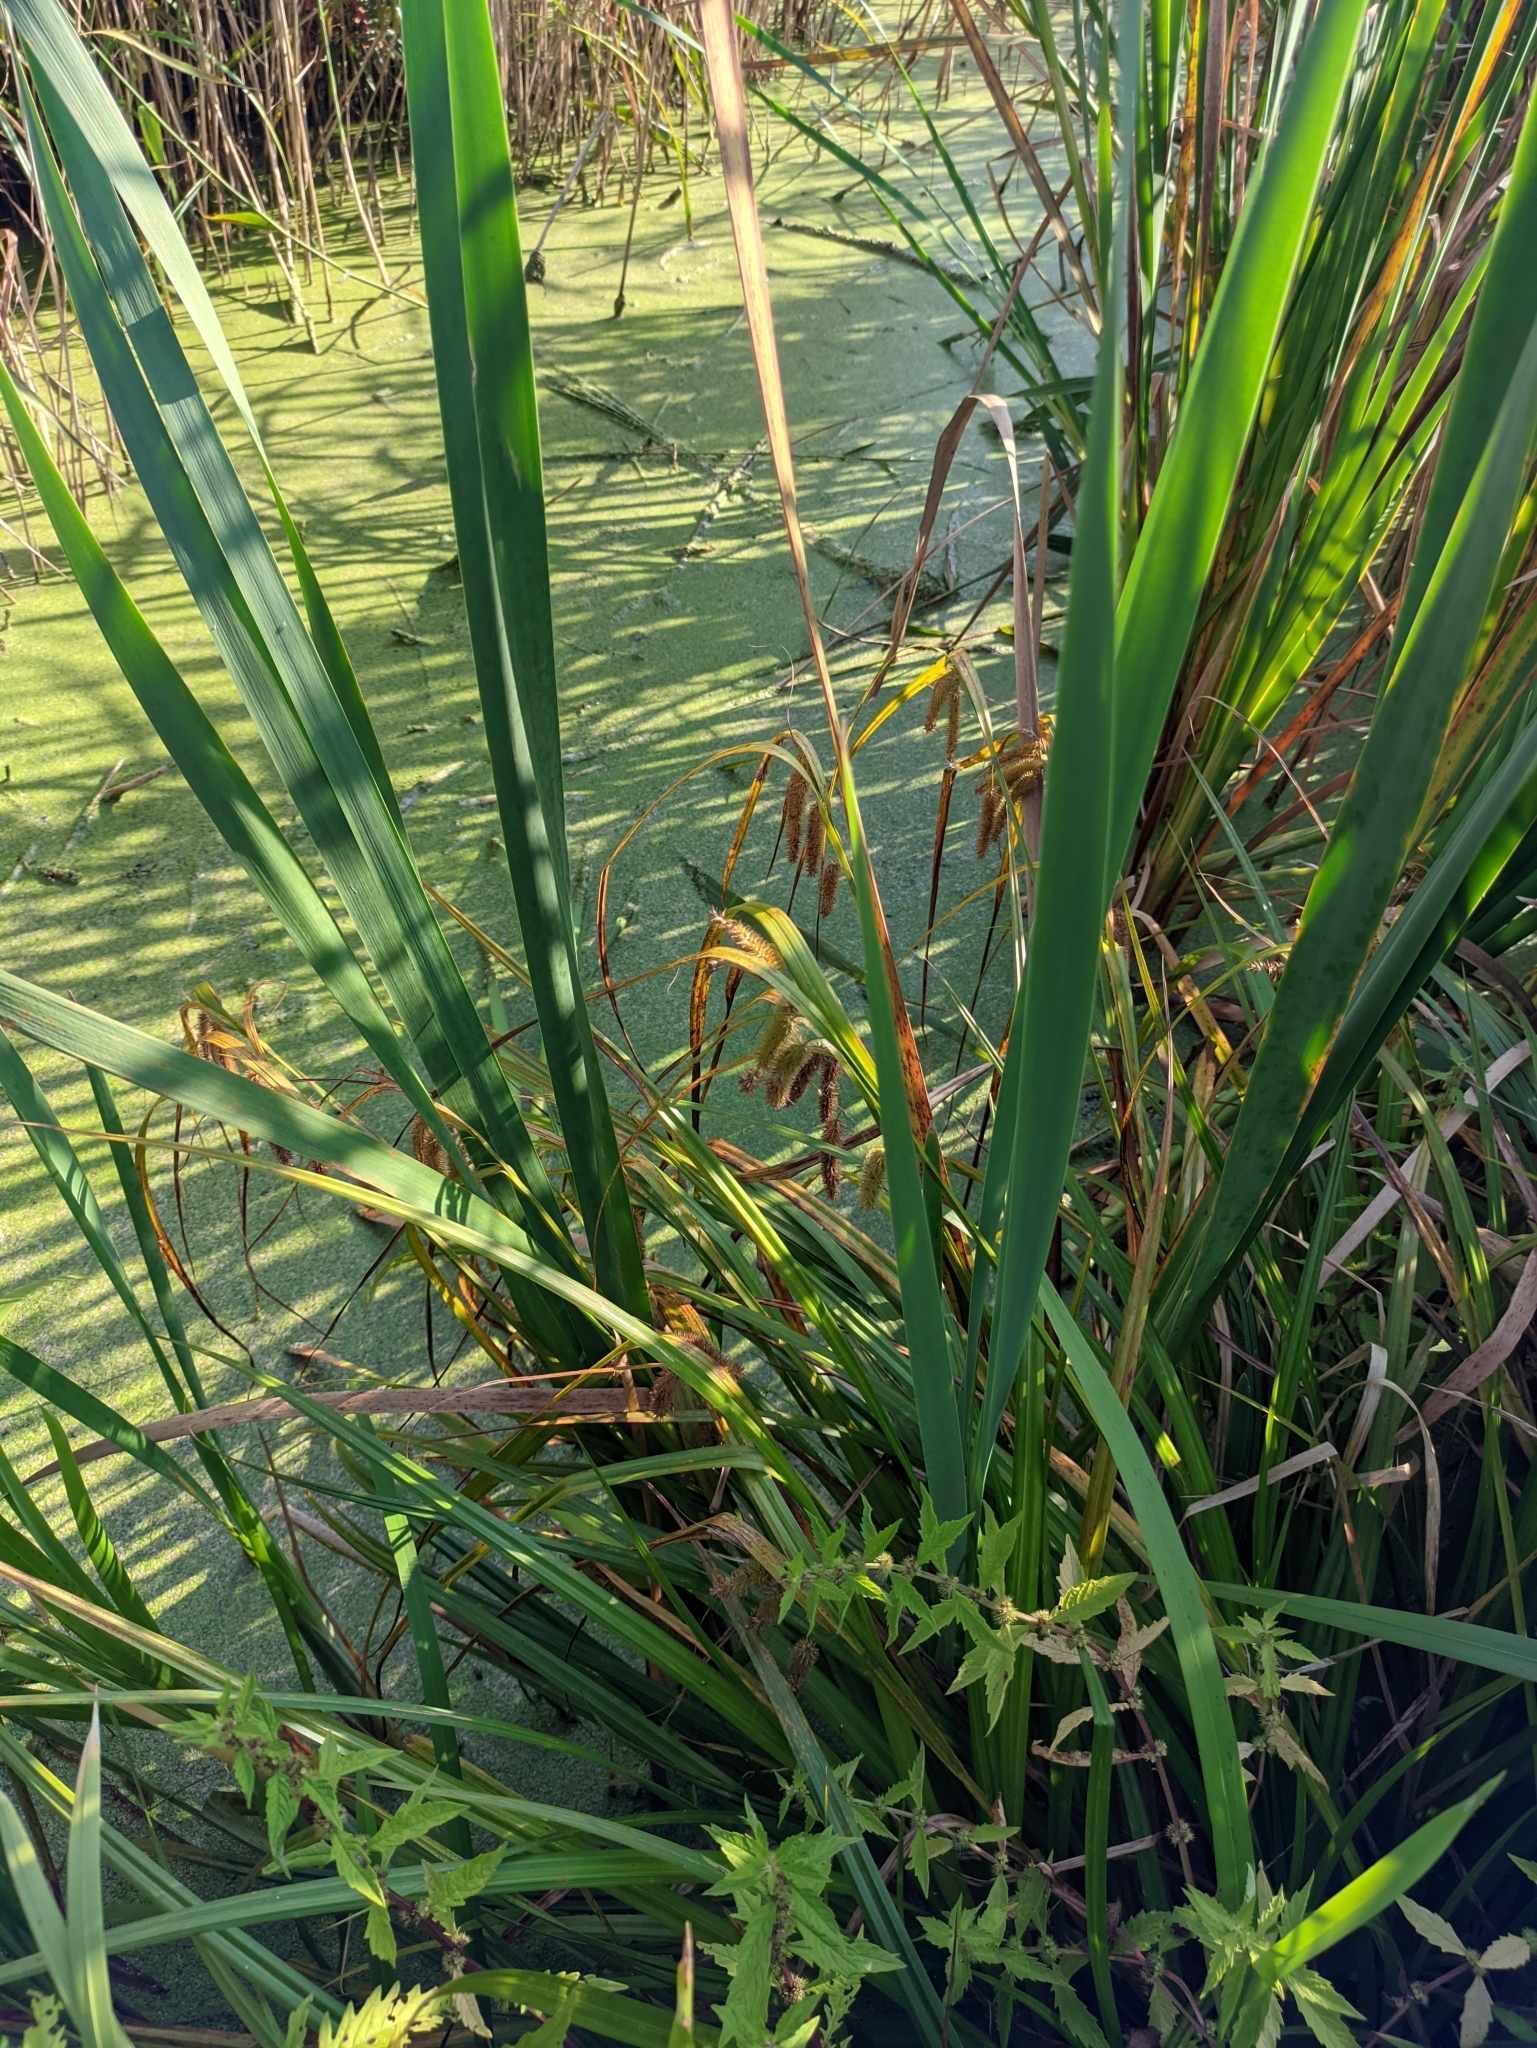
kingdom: Plantae
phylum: Tracheophyta
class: Liliopsida
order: Poales
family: Cyperaceae
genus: Carex
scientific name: Carex pseudocyperus
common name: Cyperus sedge
